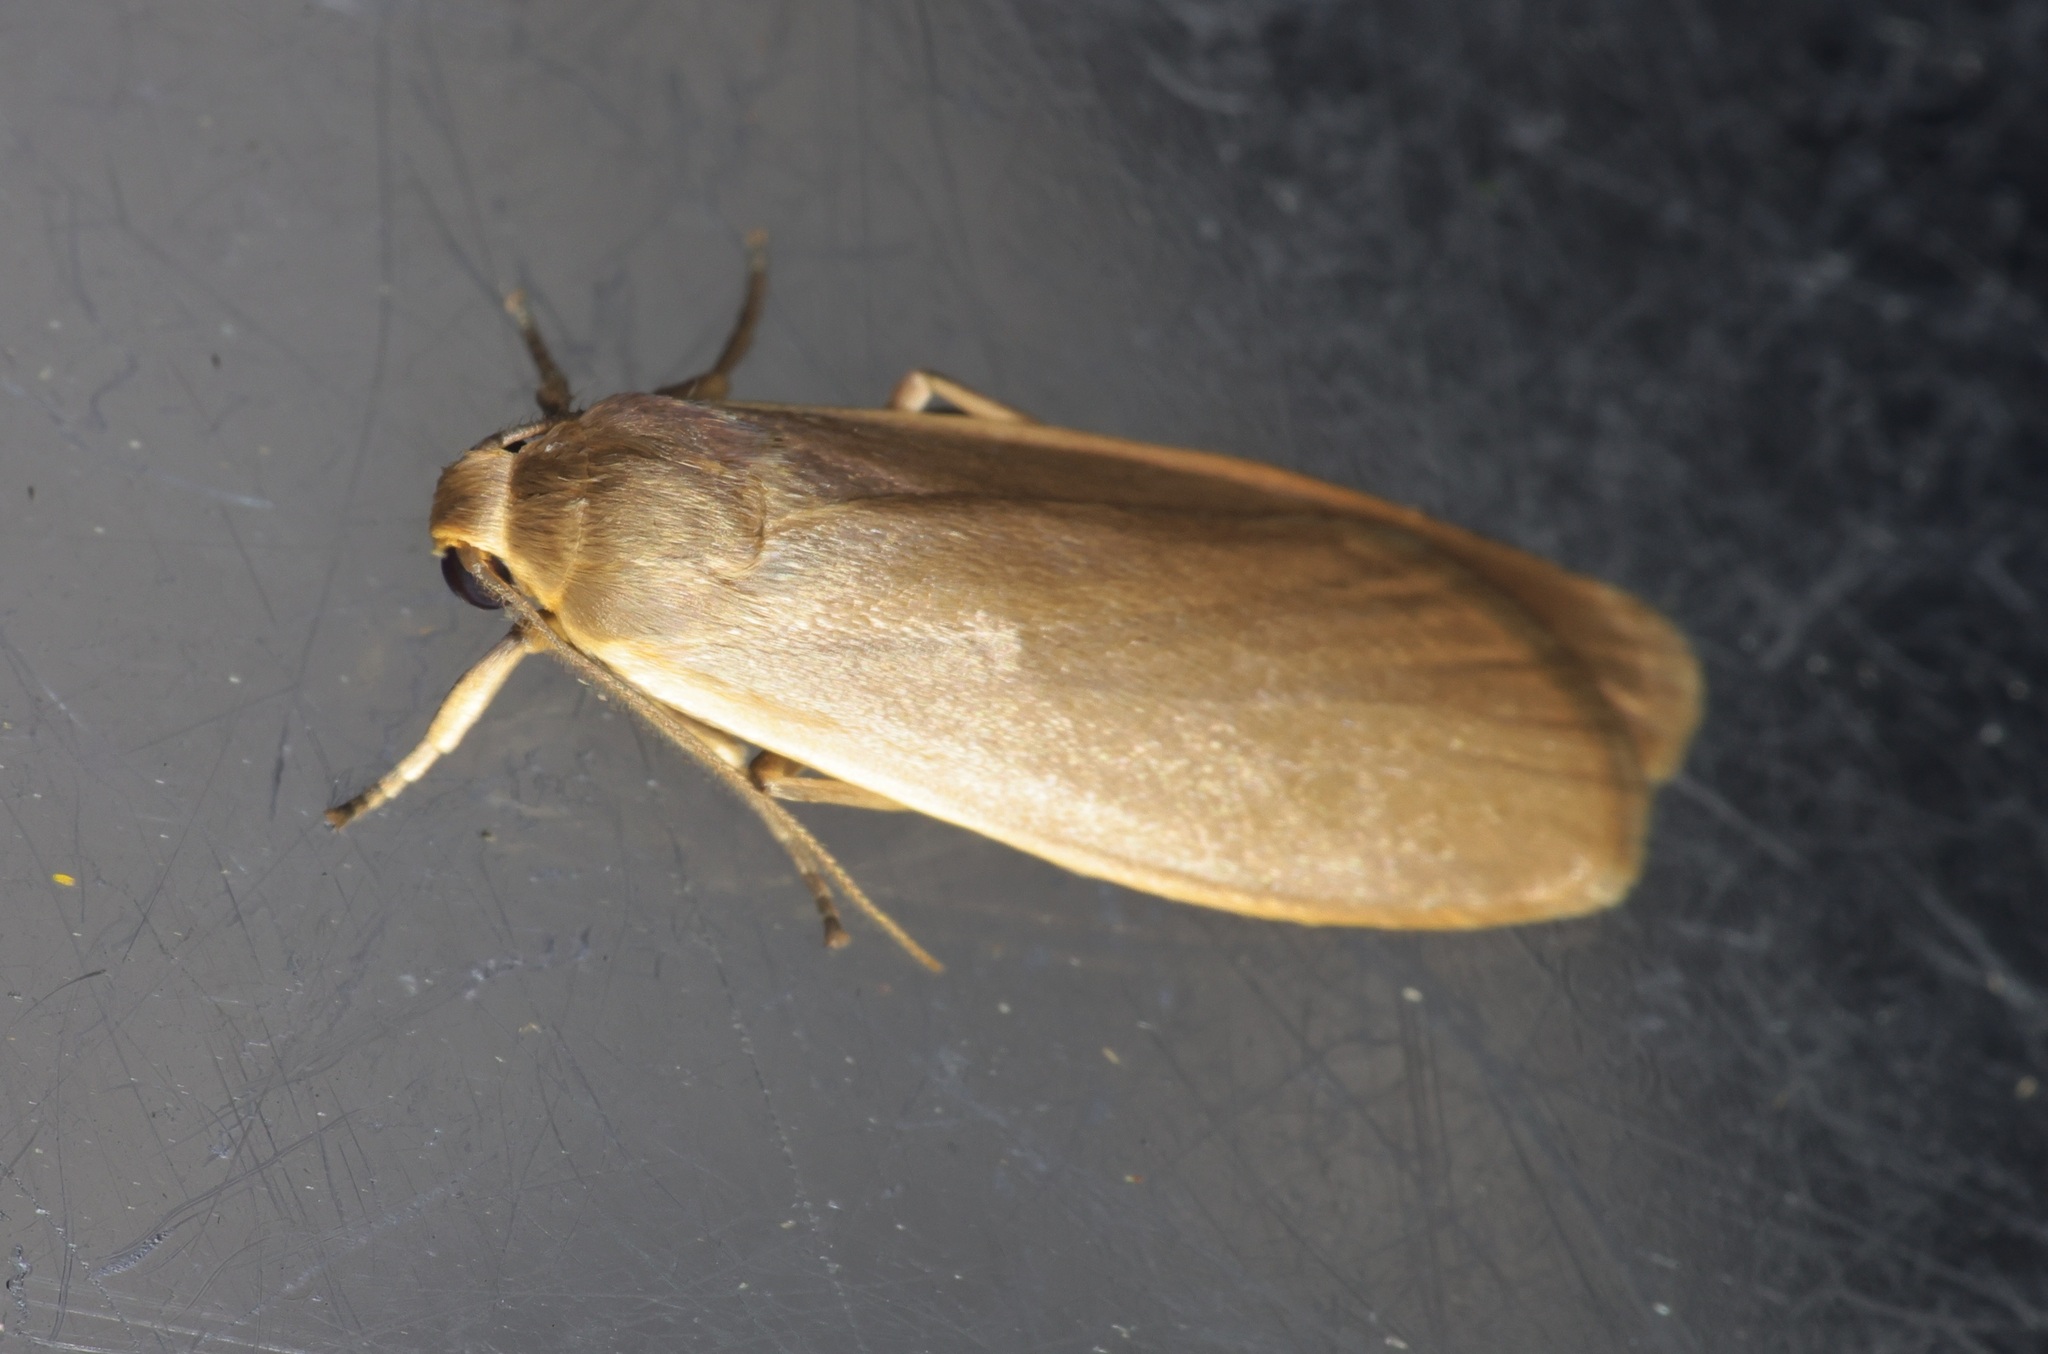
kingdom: Animalia
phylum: Arthropoda
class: Insecta
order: Lepidoptera
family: Erebidae
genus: Danielithosia
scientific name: Danielithosia immaculata
